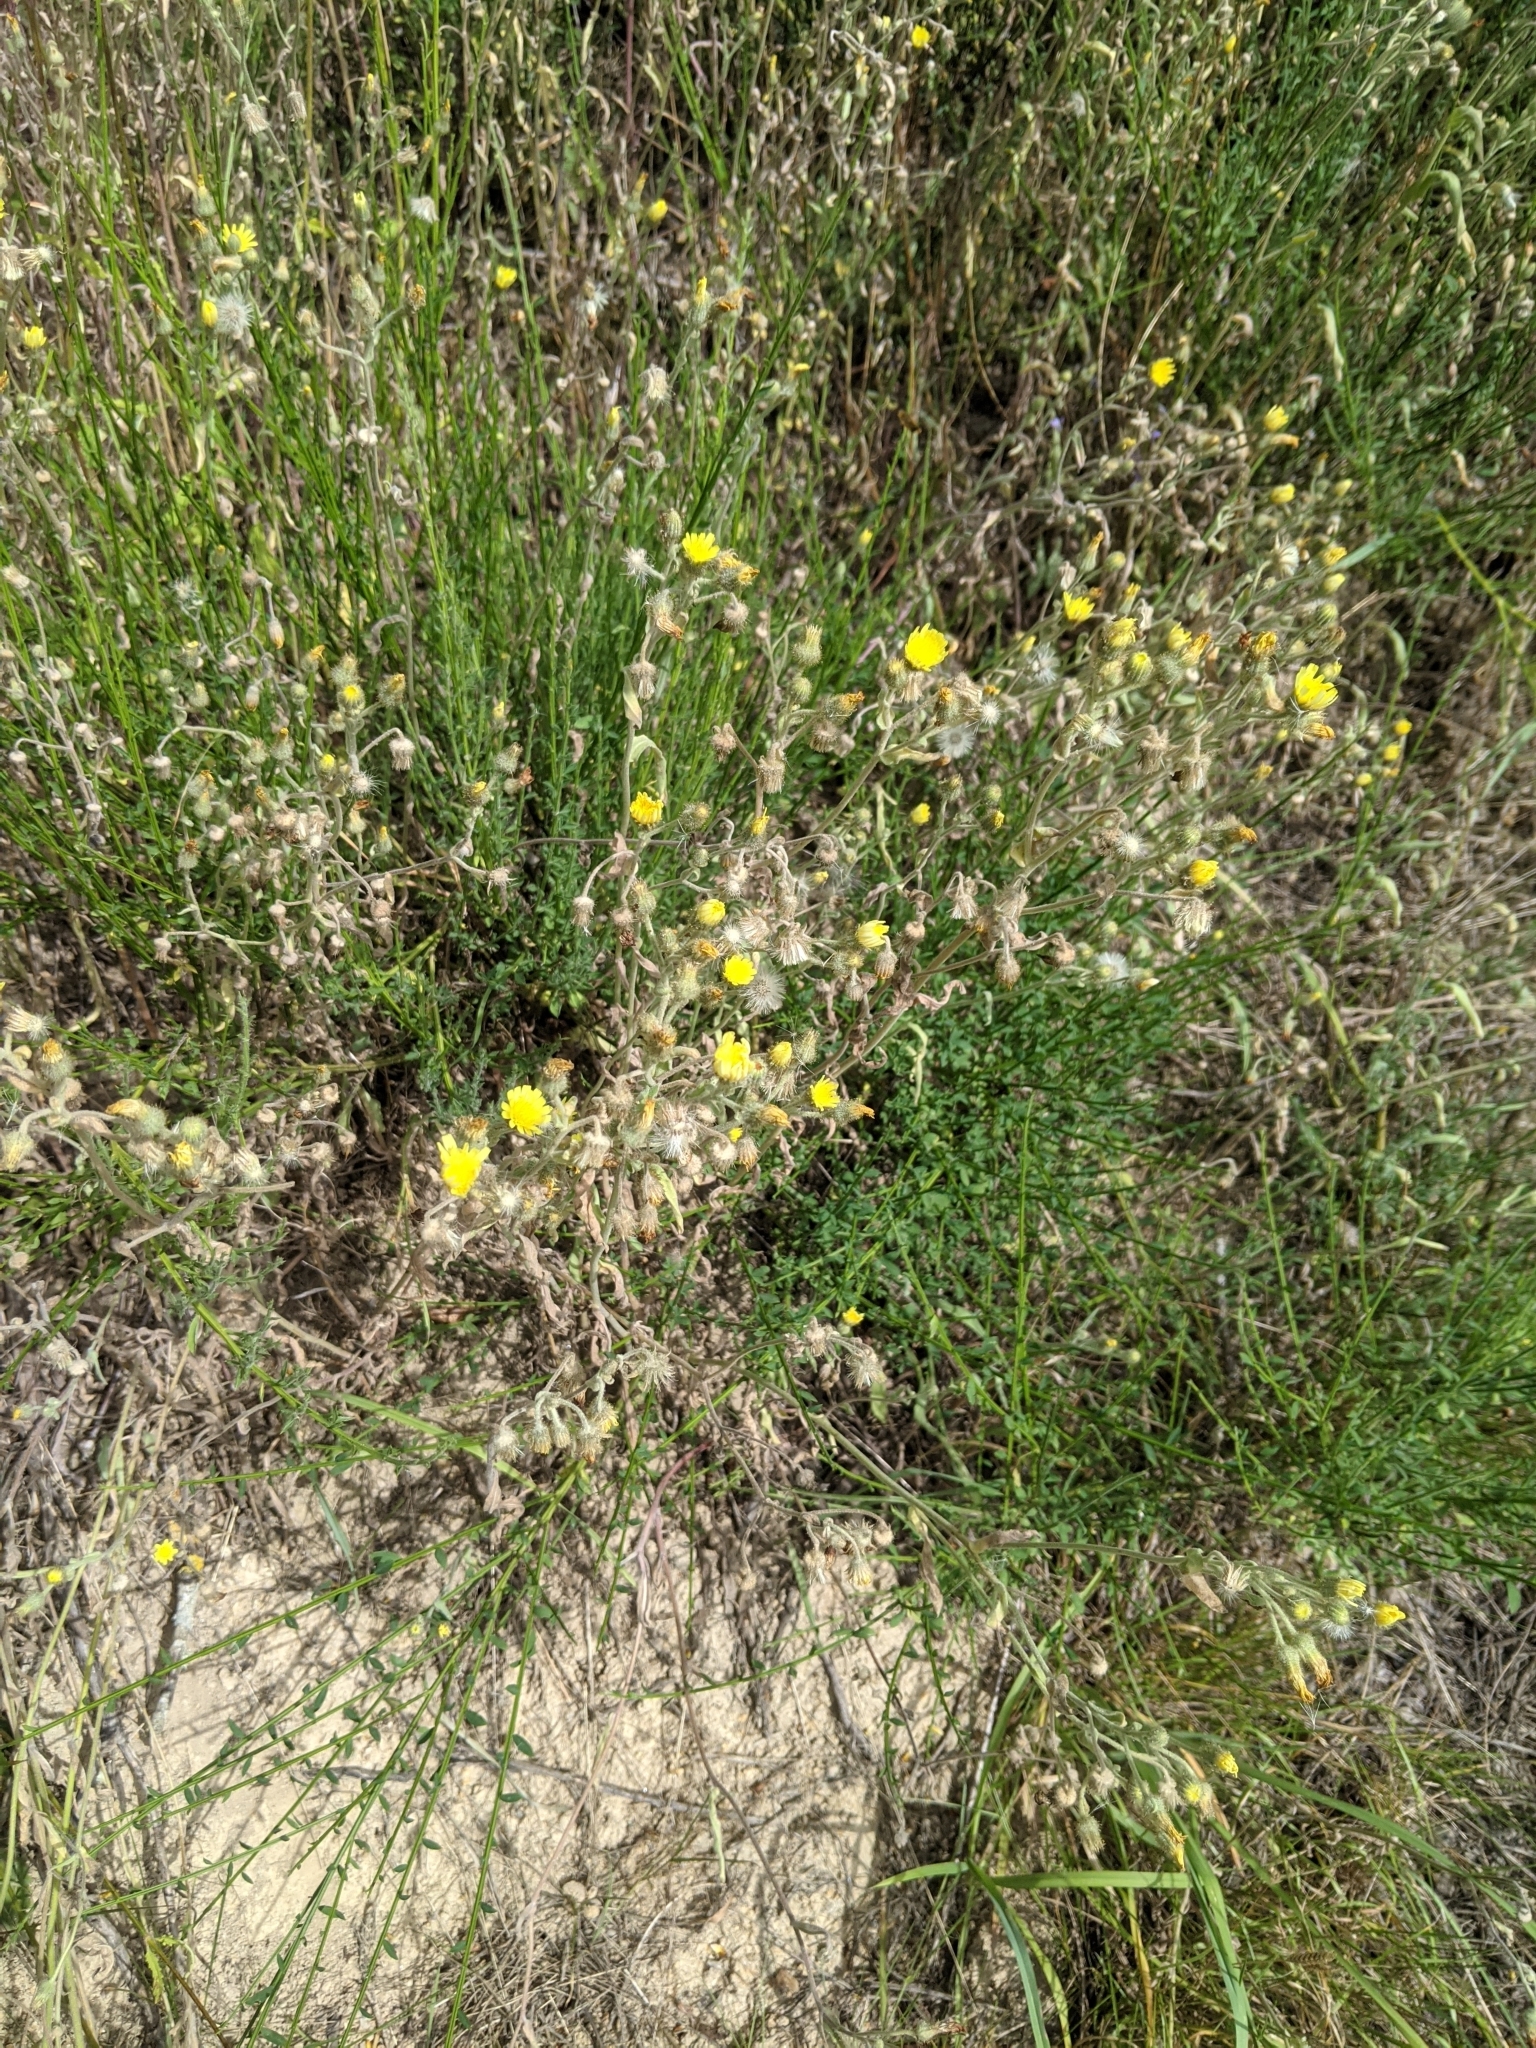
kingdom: Plantae
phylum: Tracheophyta
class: Magnoliopsida
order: Asterales
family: Asteraceae
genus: Andryala
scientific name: Andryala integrifolia
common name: Common andryala
